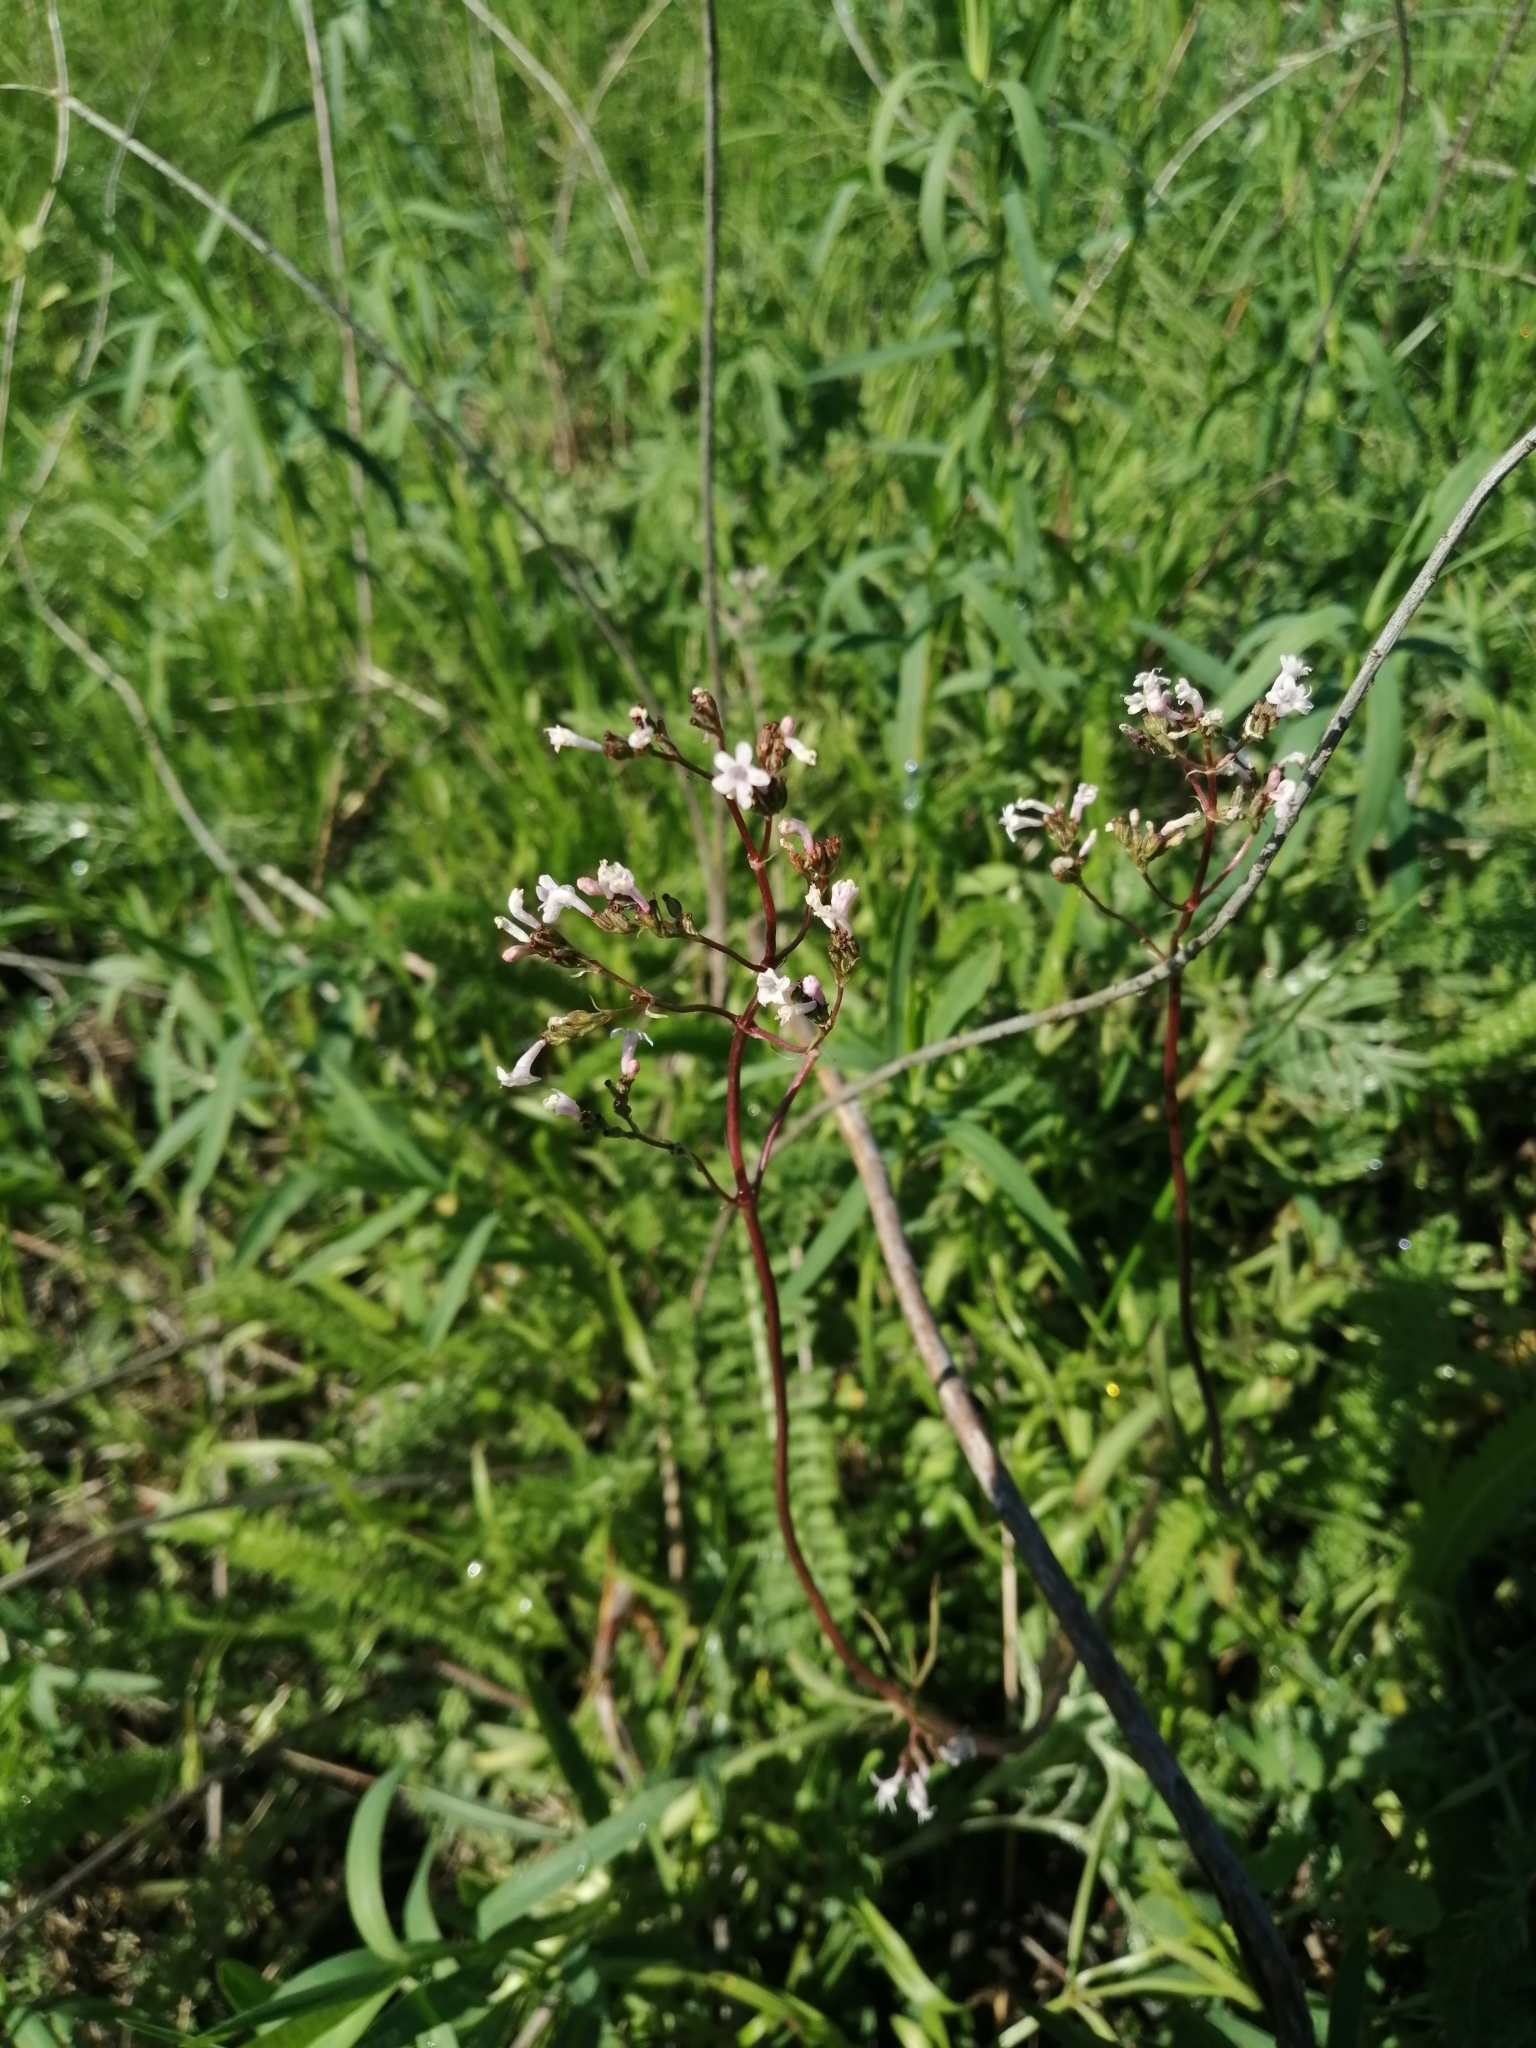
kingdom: Plantae
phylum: Tracheophyta
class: Magnoliopsida
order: Dipsacales
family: Caprifoliaceae
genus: Valeriana
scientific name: Valeriana tuberosa
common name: Tuberous valerian
